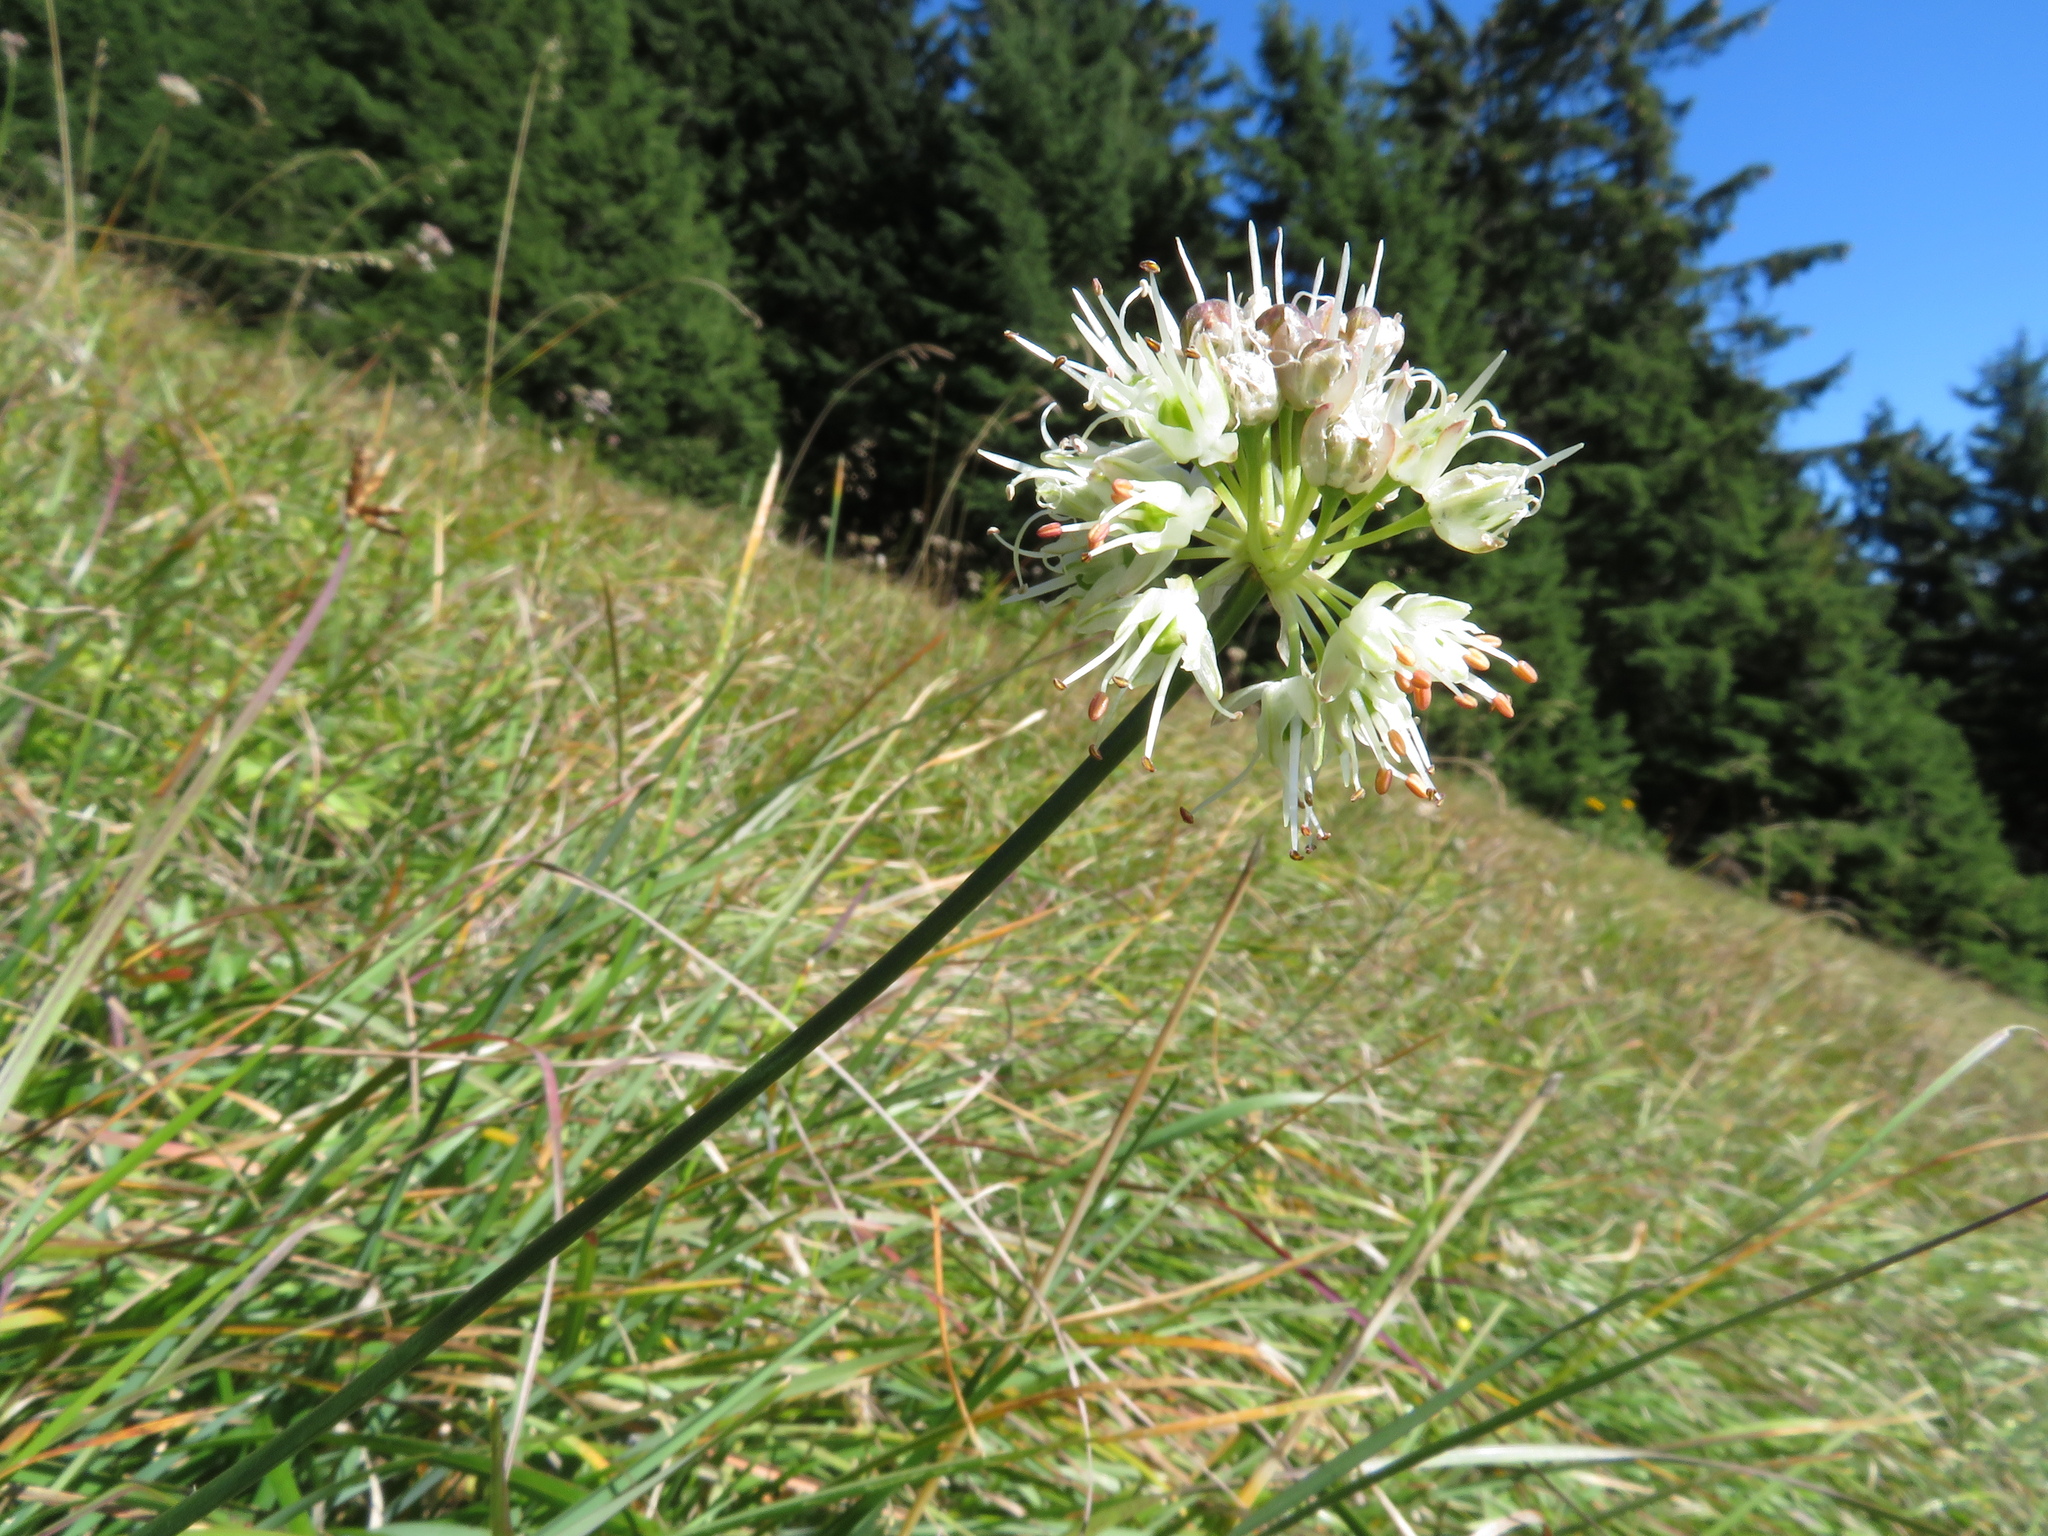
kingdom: Plantae
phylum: Tracheophyta
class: Liliopsida
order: Asparagales
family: Amaryllidaceae
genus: Allium
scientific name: Allium
